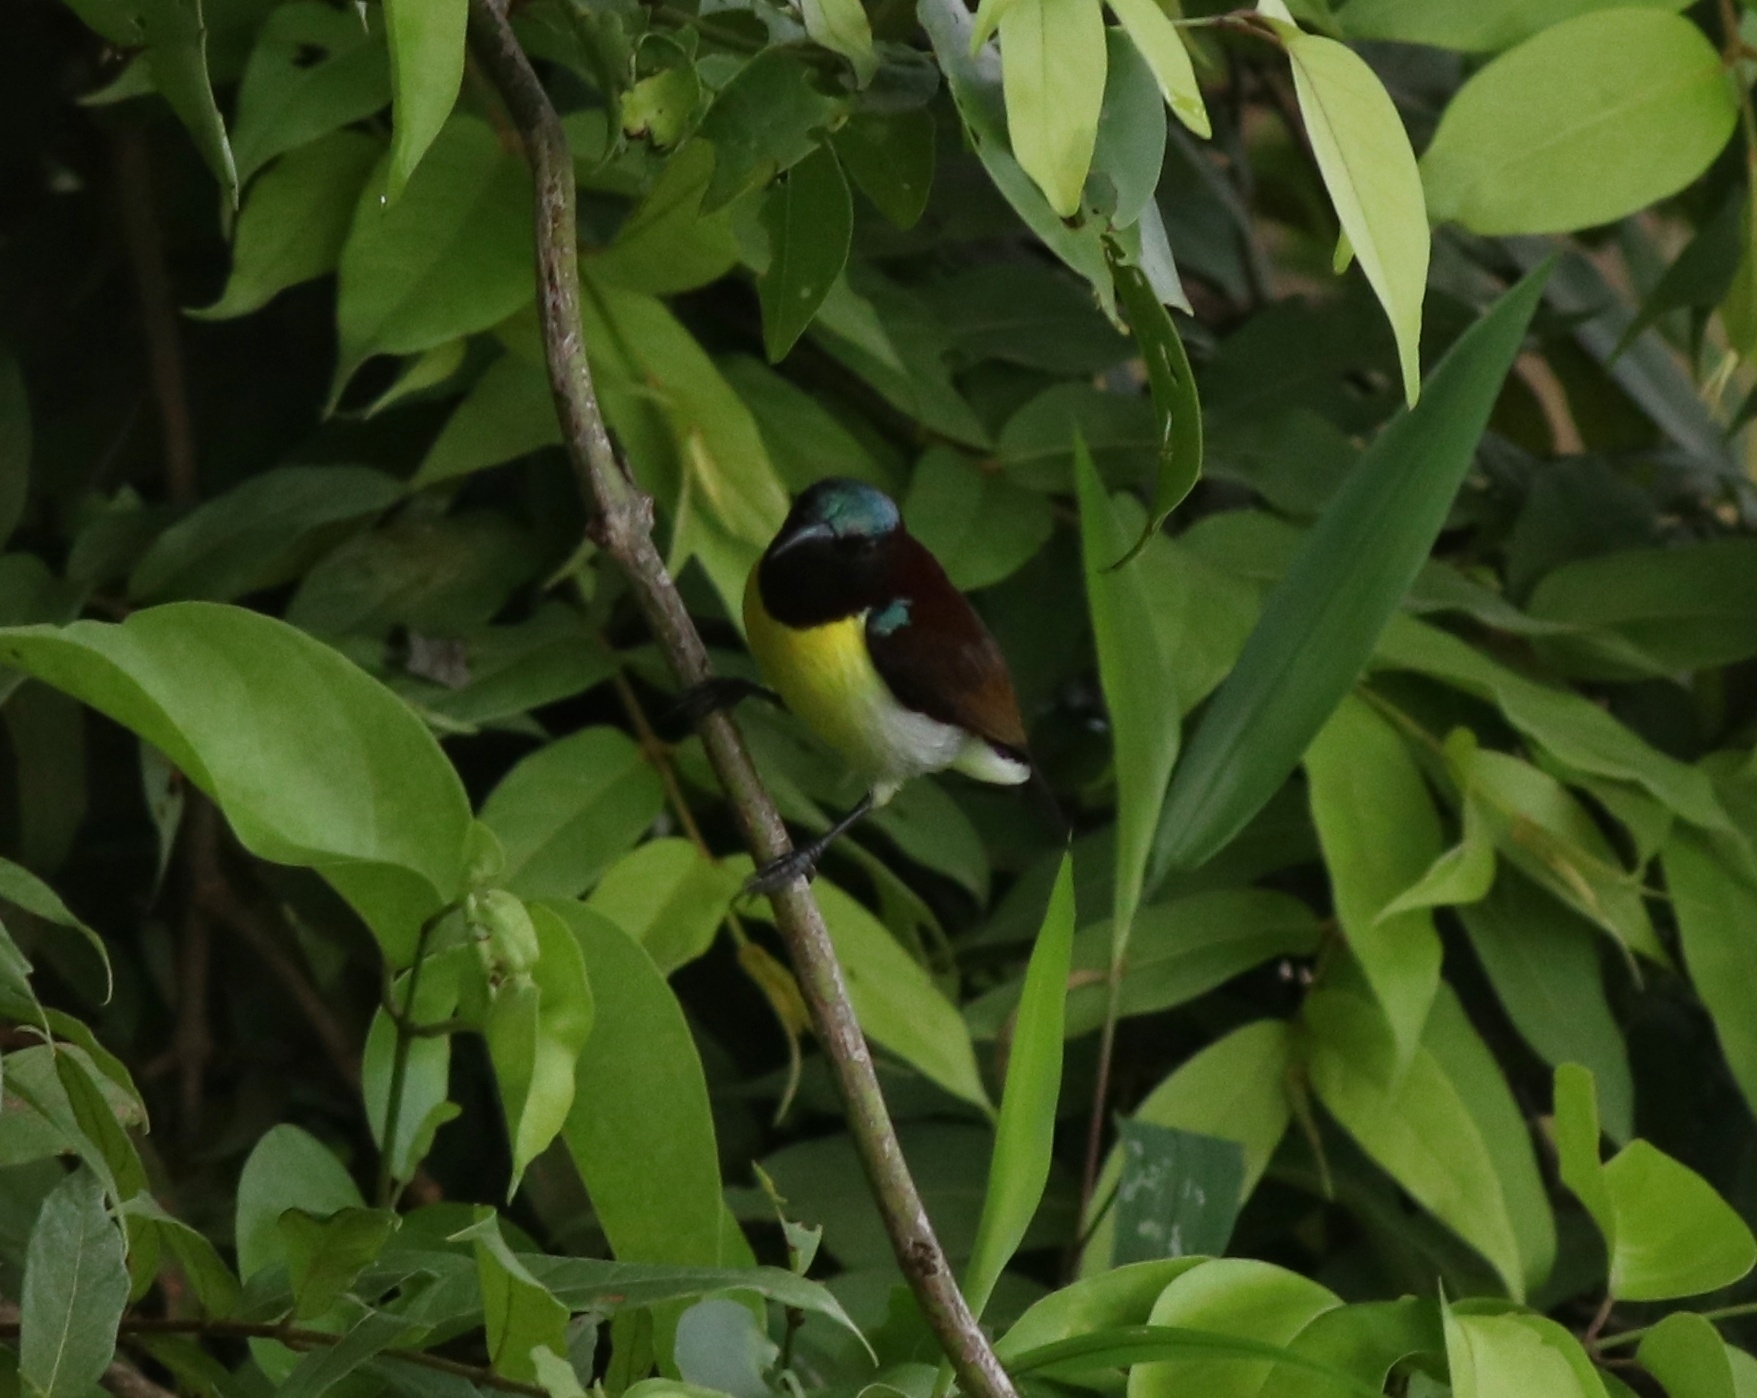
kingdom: Animalia
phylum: Chordata
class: Aves
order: Passeriformes
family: Nectariniidae
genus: Leptocoma
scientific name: Leptocoma zeylonica
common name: Purple-rumped sunbird
